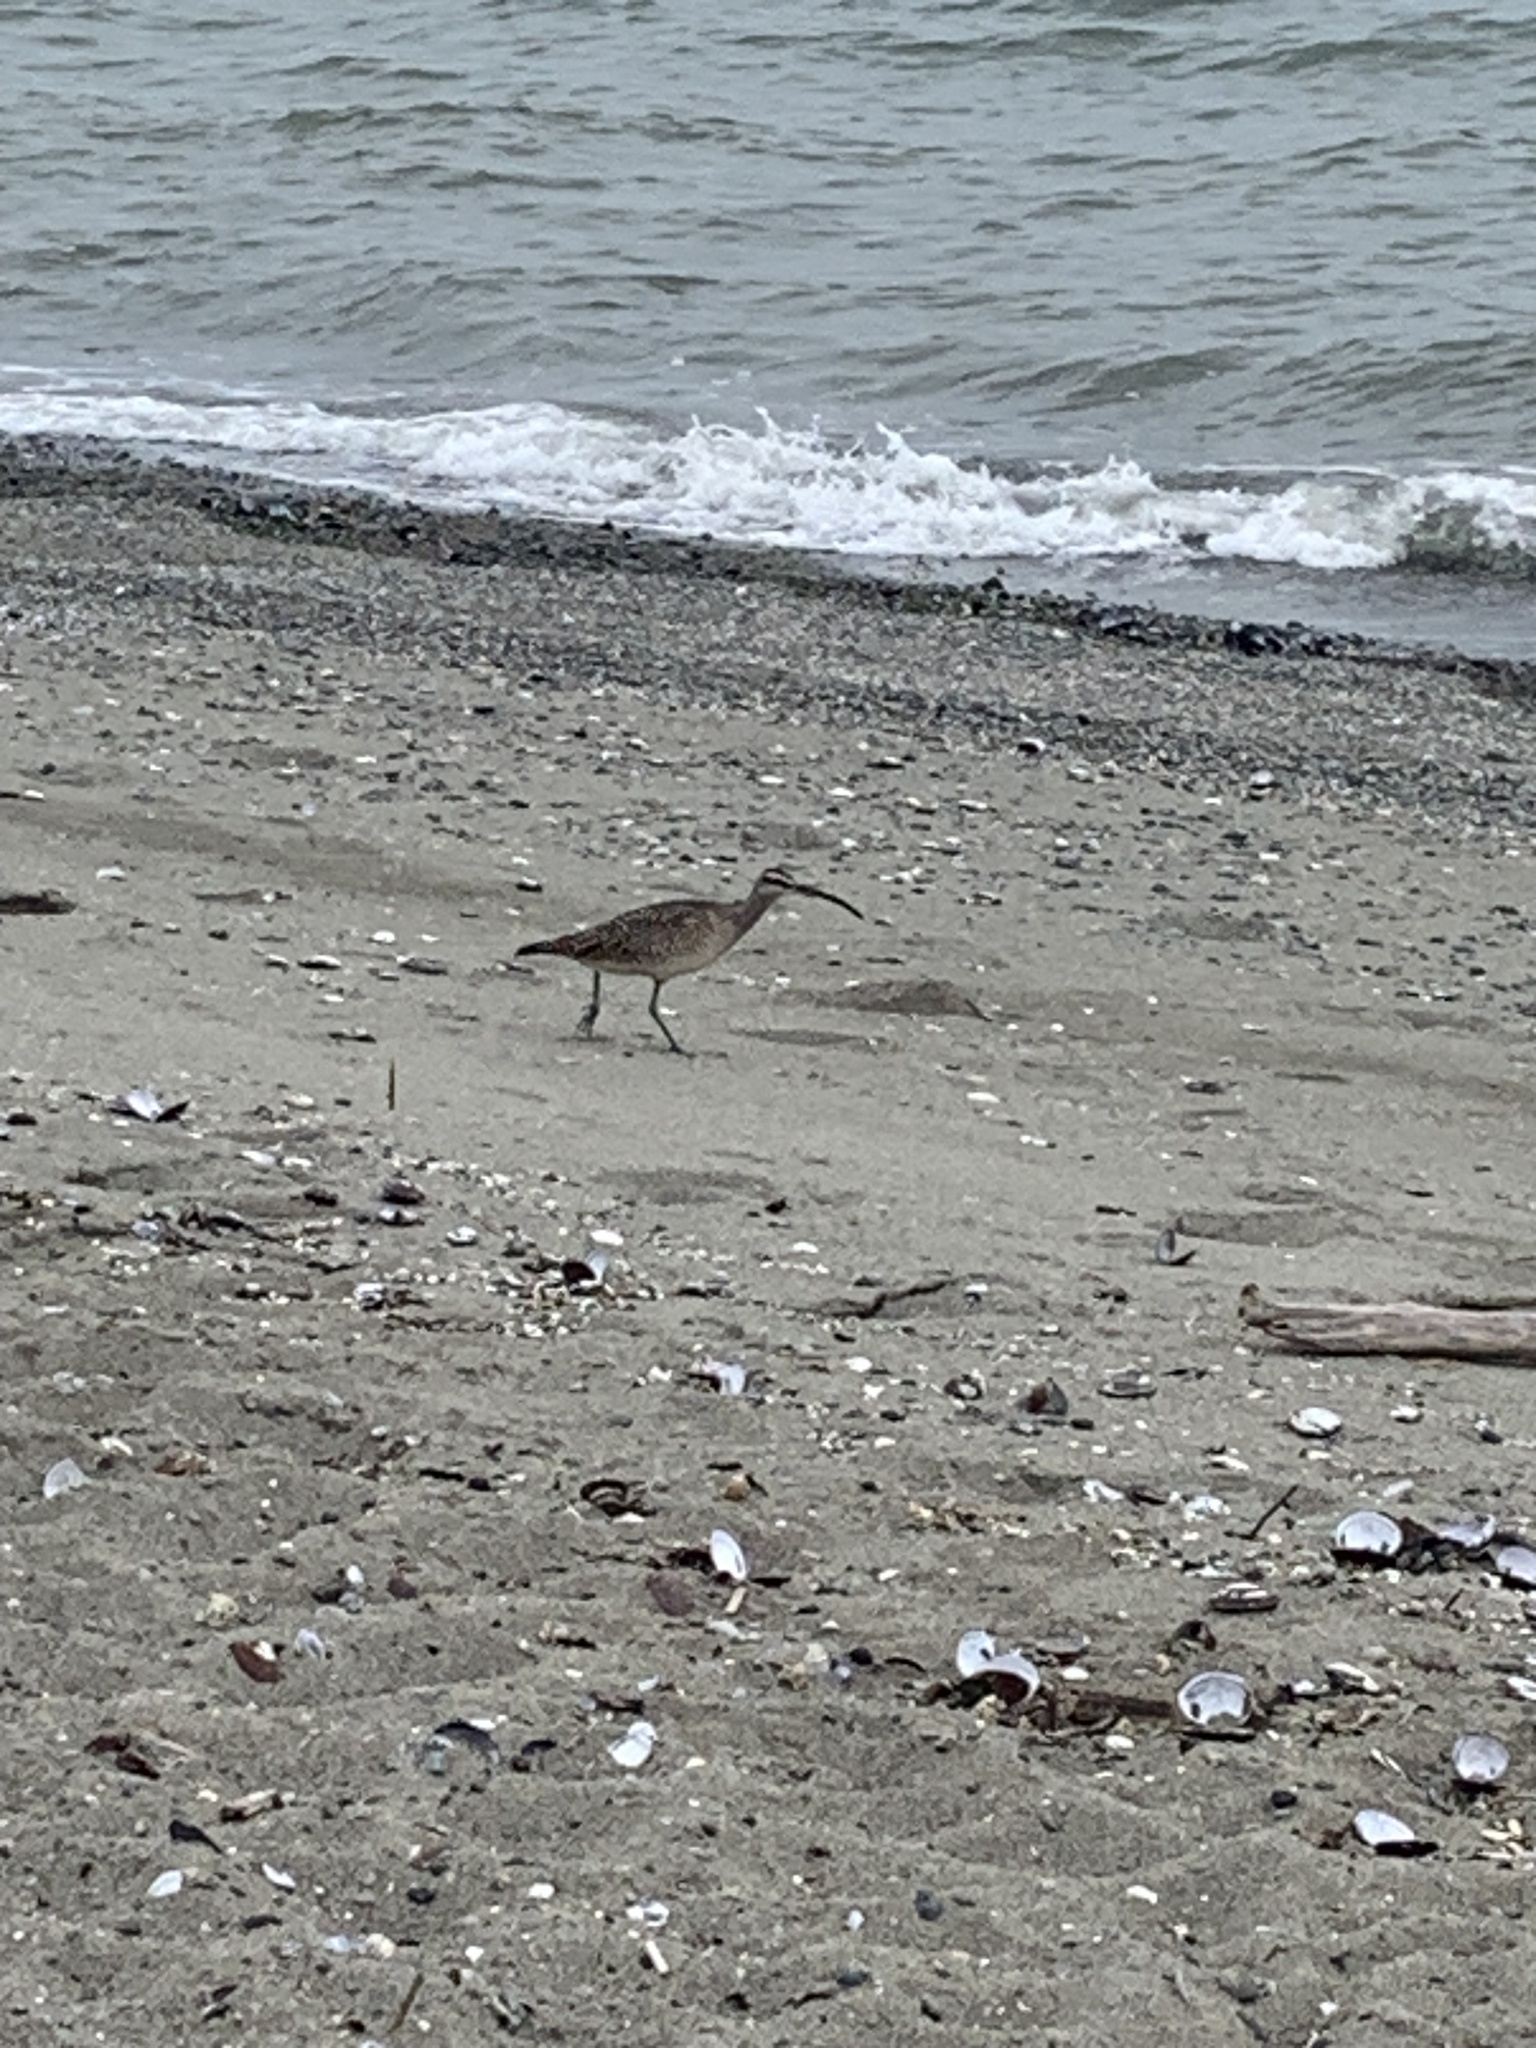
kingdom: Animalia
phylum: Chordata
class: Aves
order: Charadriiformes
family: Scolopacidae
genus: Numenius
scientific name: Numenius phaeopus
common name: Whimbrel
